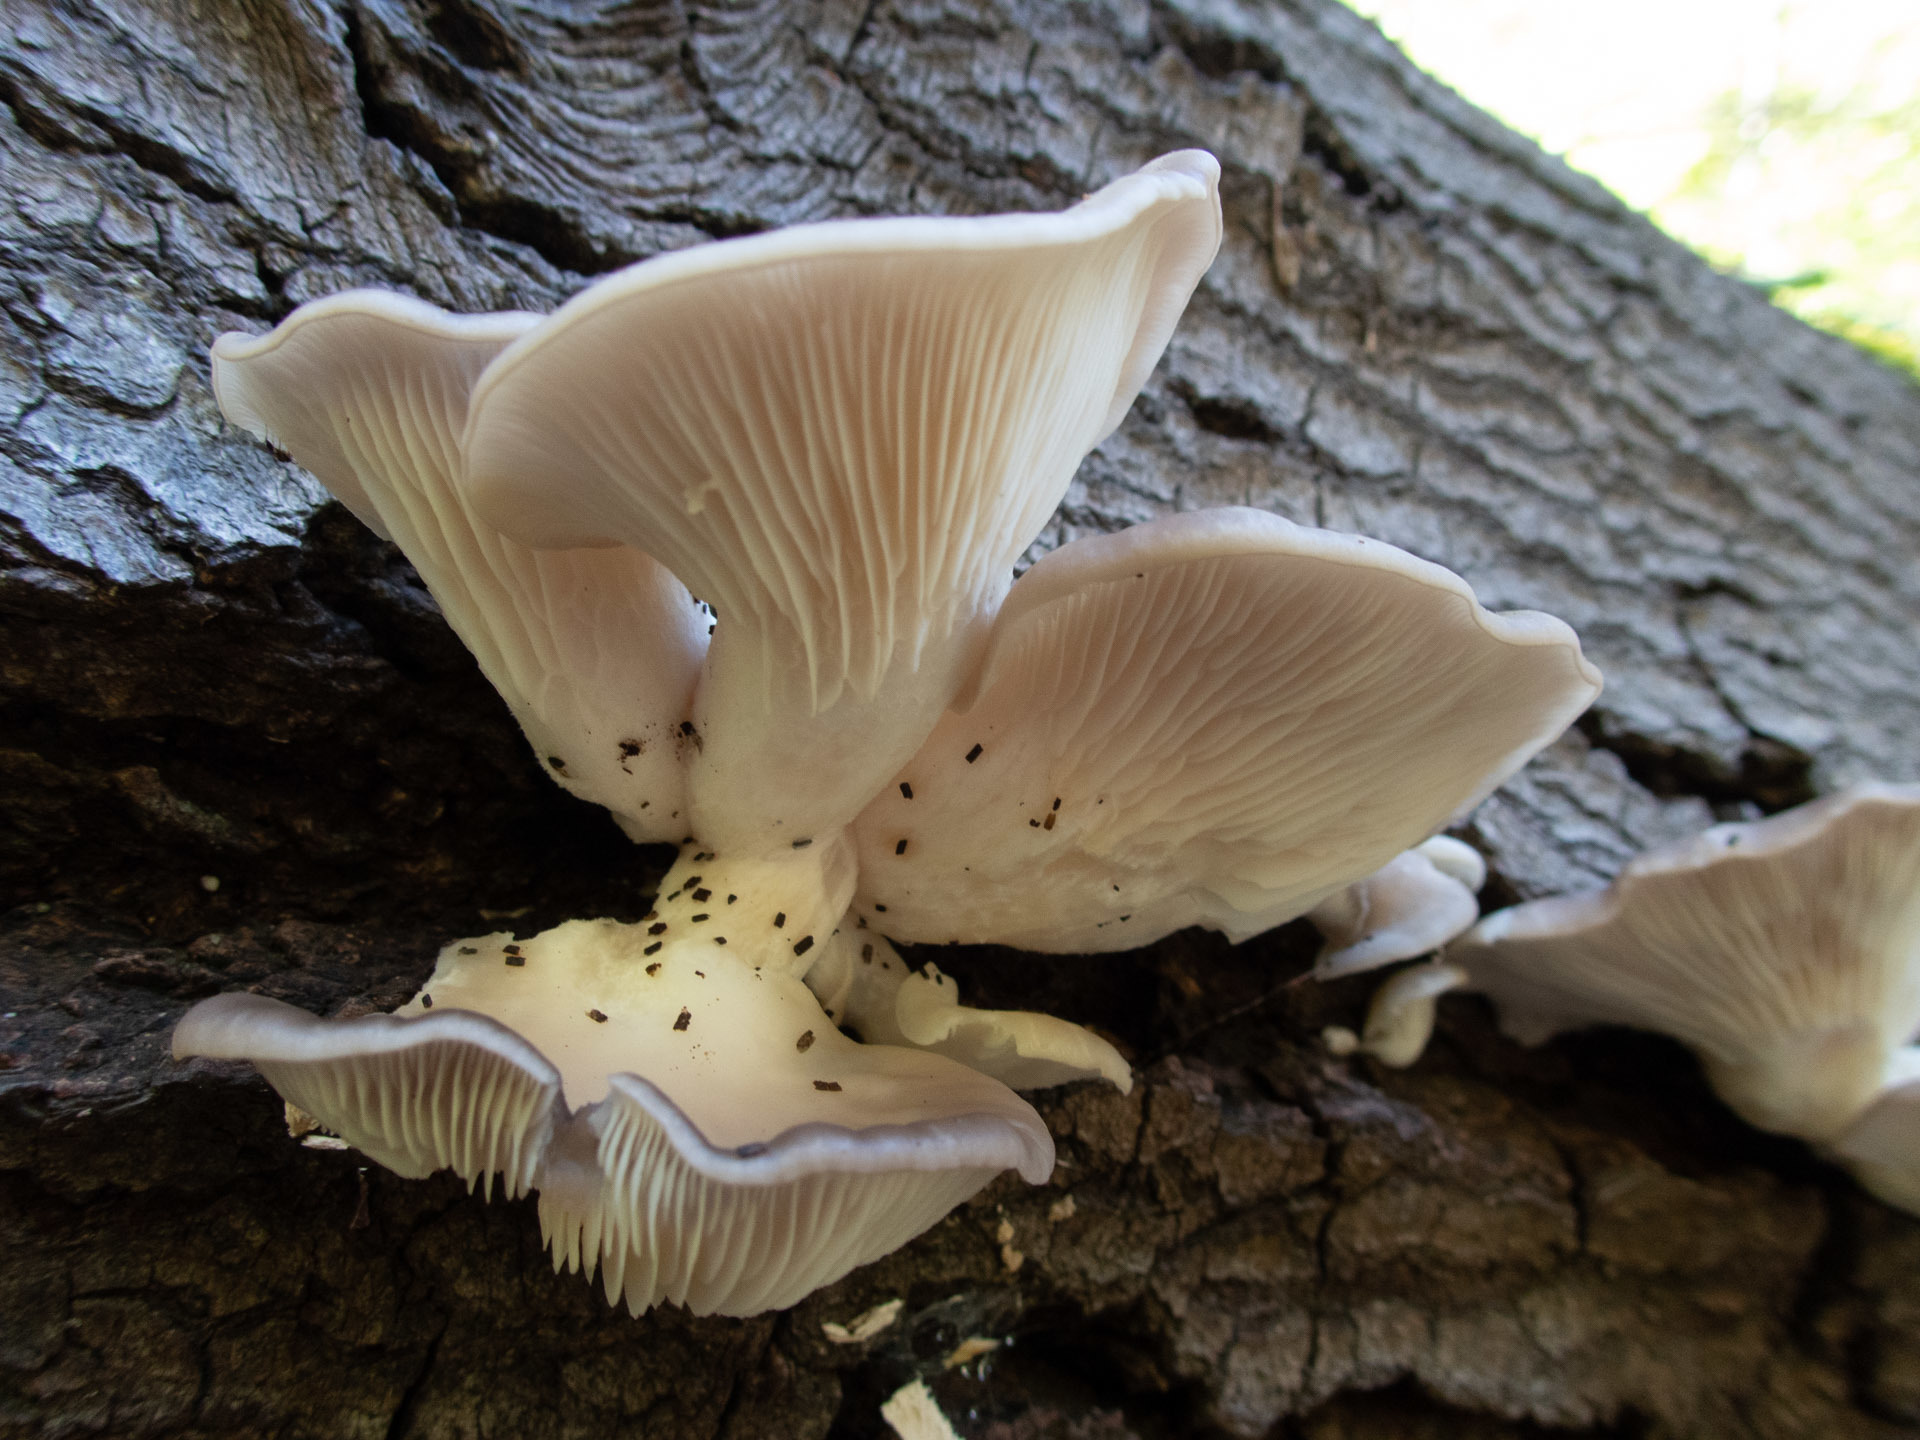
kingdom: Fungi
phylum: Basidiomycota
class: Agaricomycetes
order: Agaricales
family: Pleurotaceae
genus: Pleurotus
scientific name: Pleurotus ostreatus
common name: Oyster mushroom
